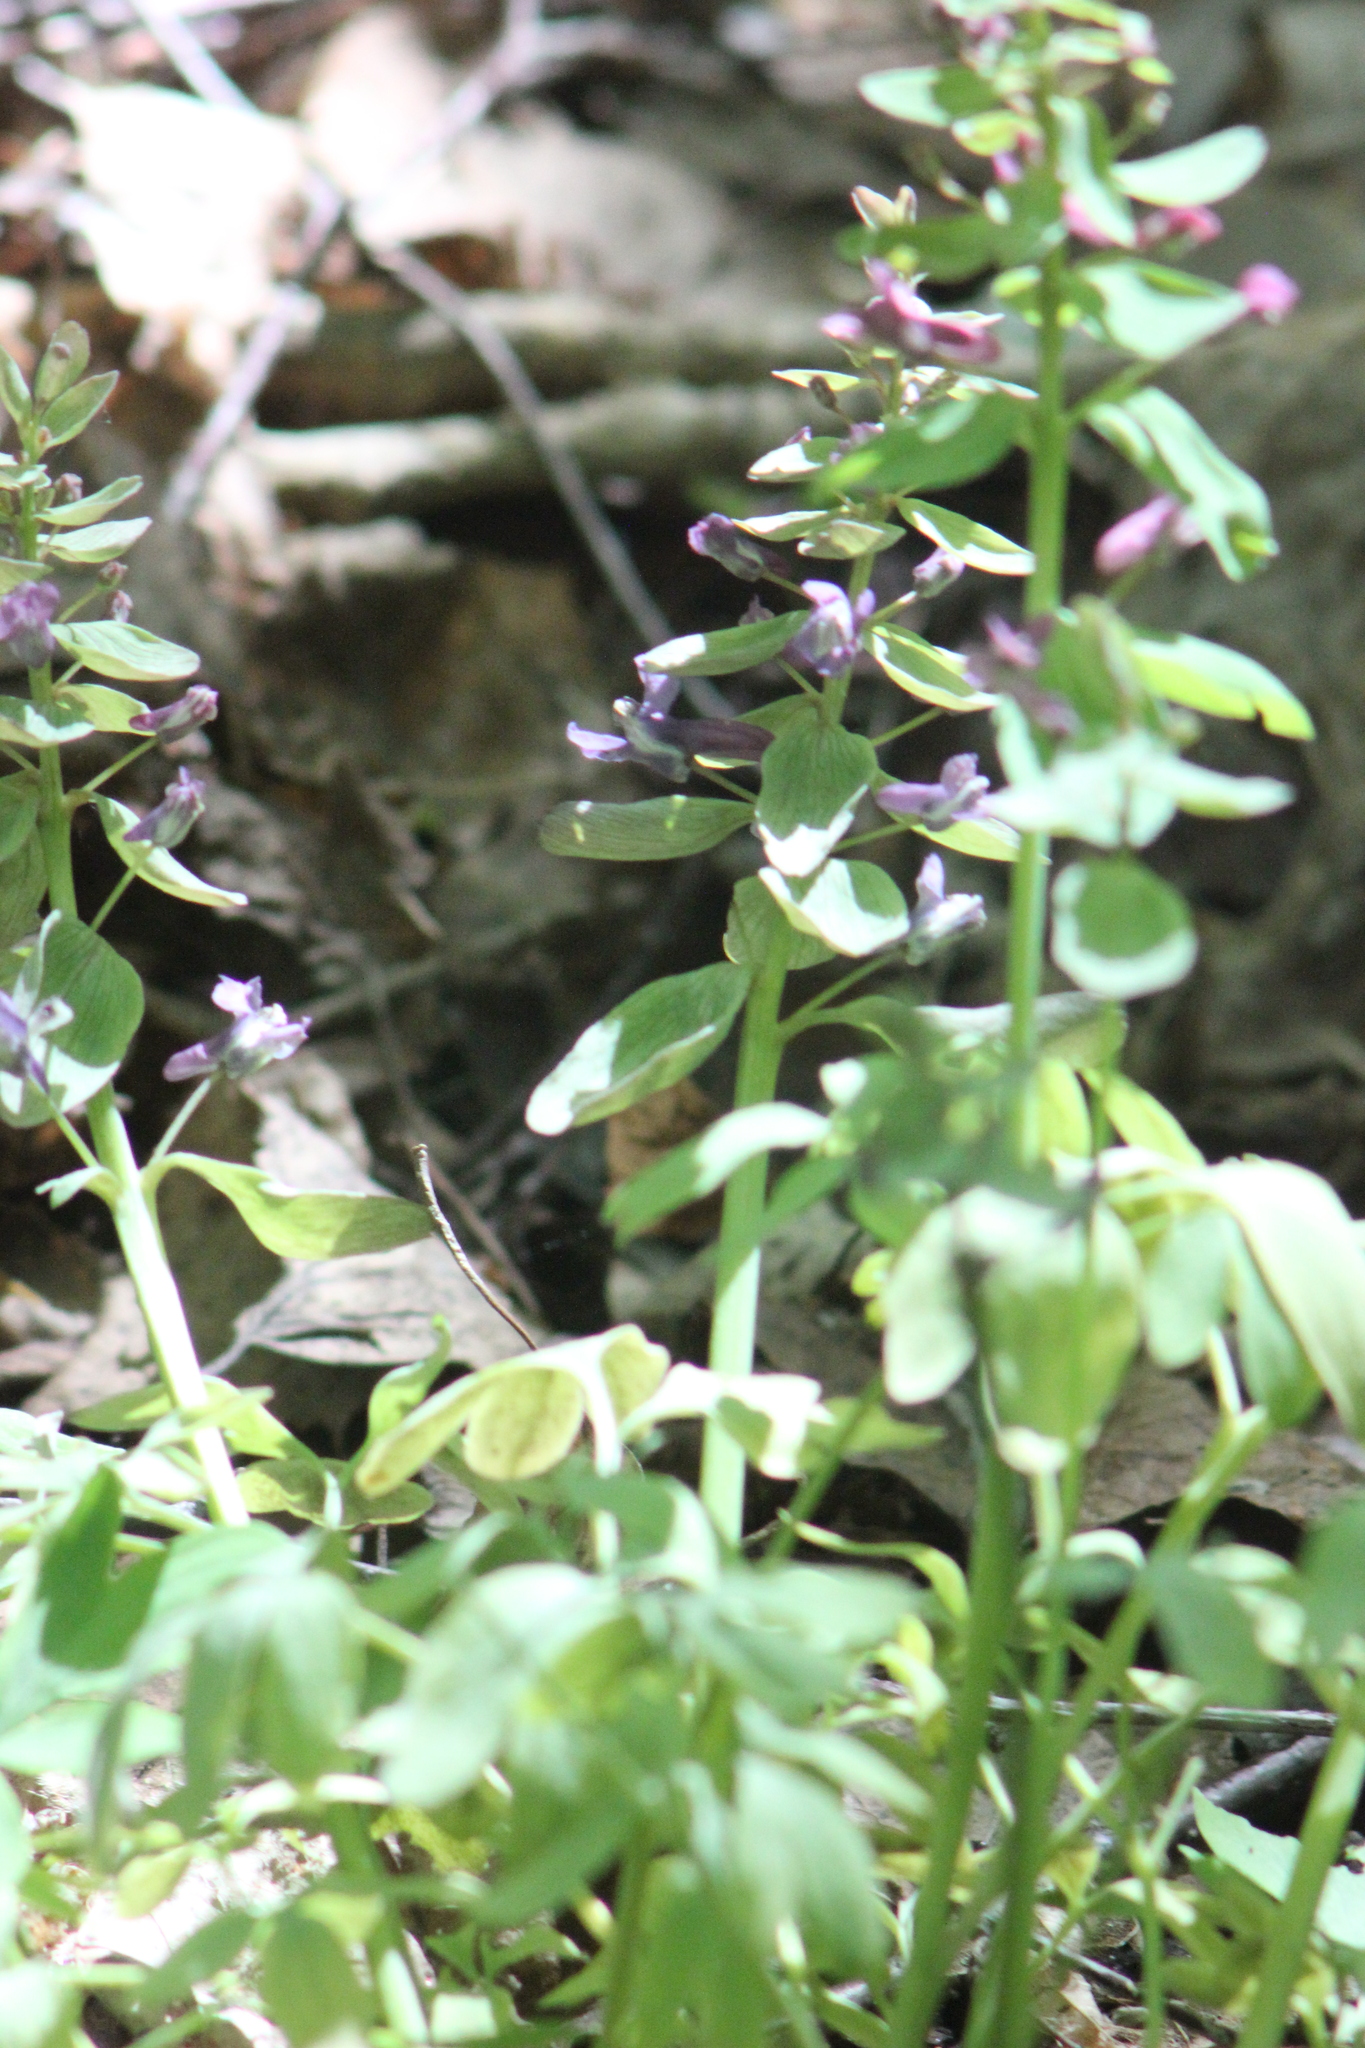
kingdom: Plantae
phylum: Tracheophyta
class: Magnoliopsida
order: Ranunculales
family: Papaveraceae
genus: Corydalis
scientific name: Corydalis solida
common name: Bird-in-a-bush
